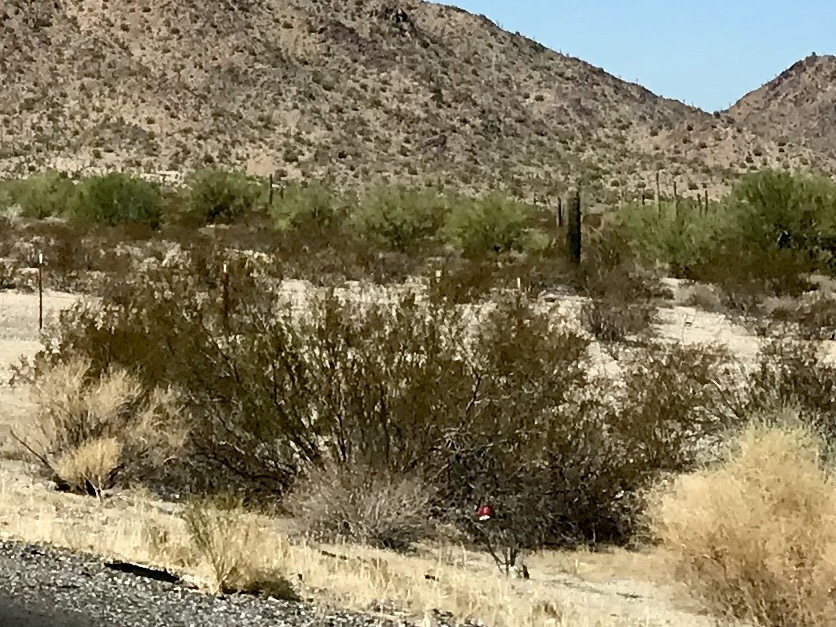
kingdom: Plantae
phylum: Tracheophyta
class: Magnoliopsida
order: Zygophyllales
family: Zygophyllaceae
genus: Larrea
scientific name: Larrea tridentata
